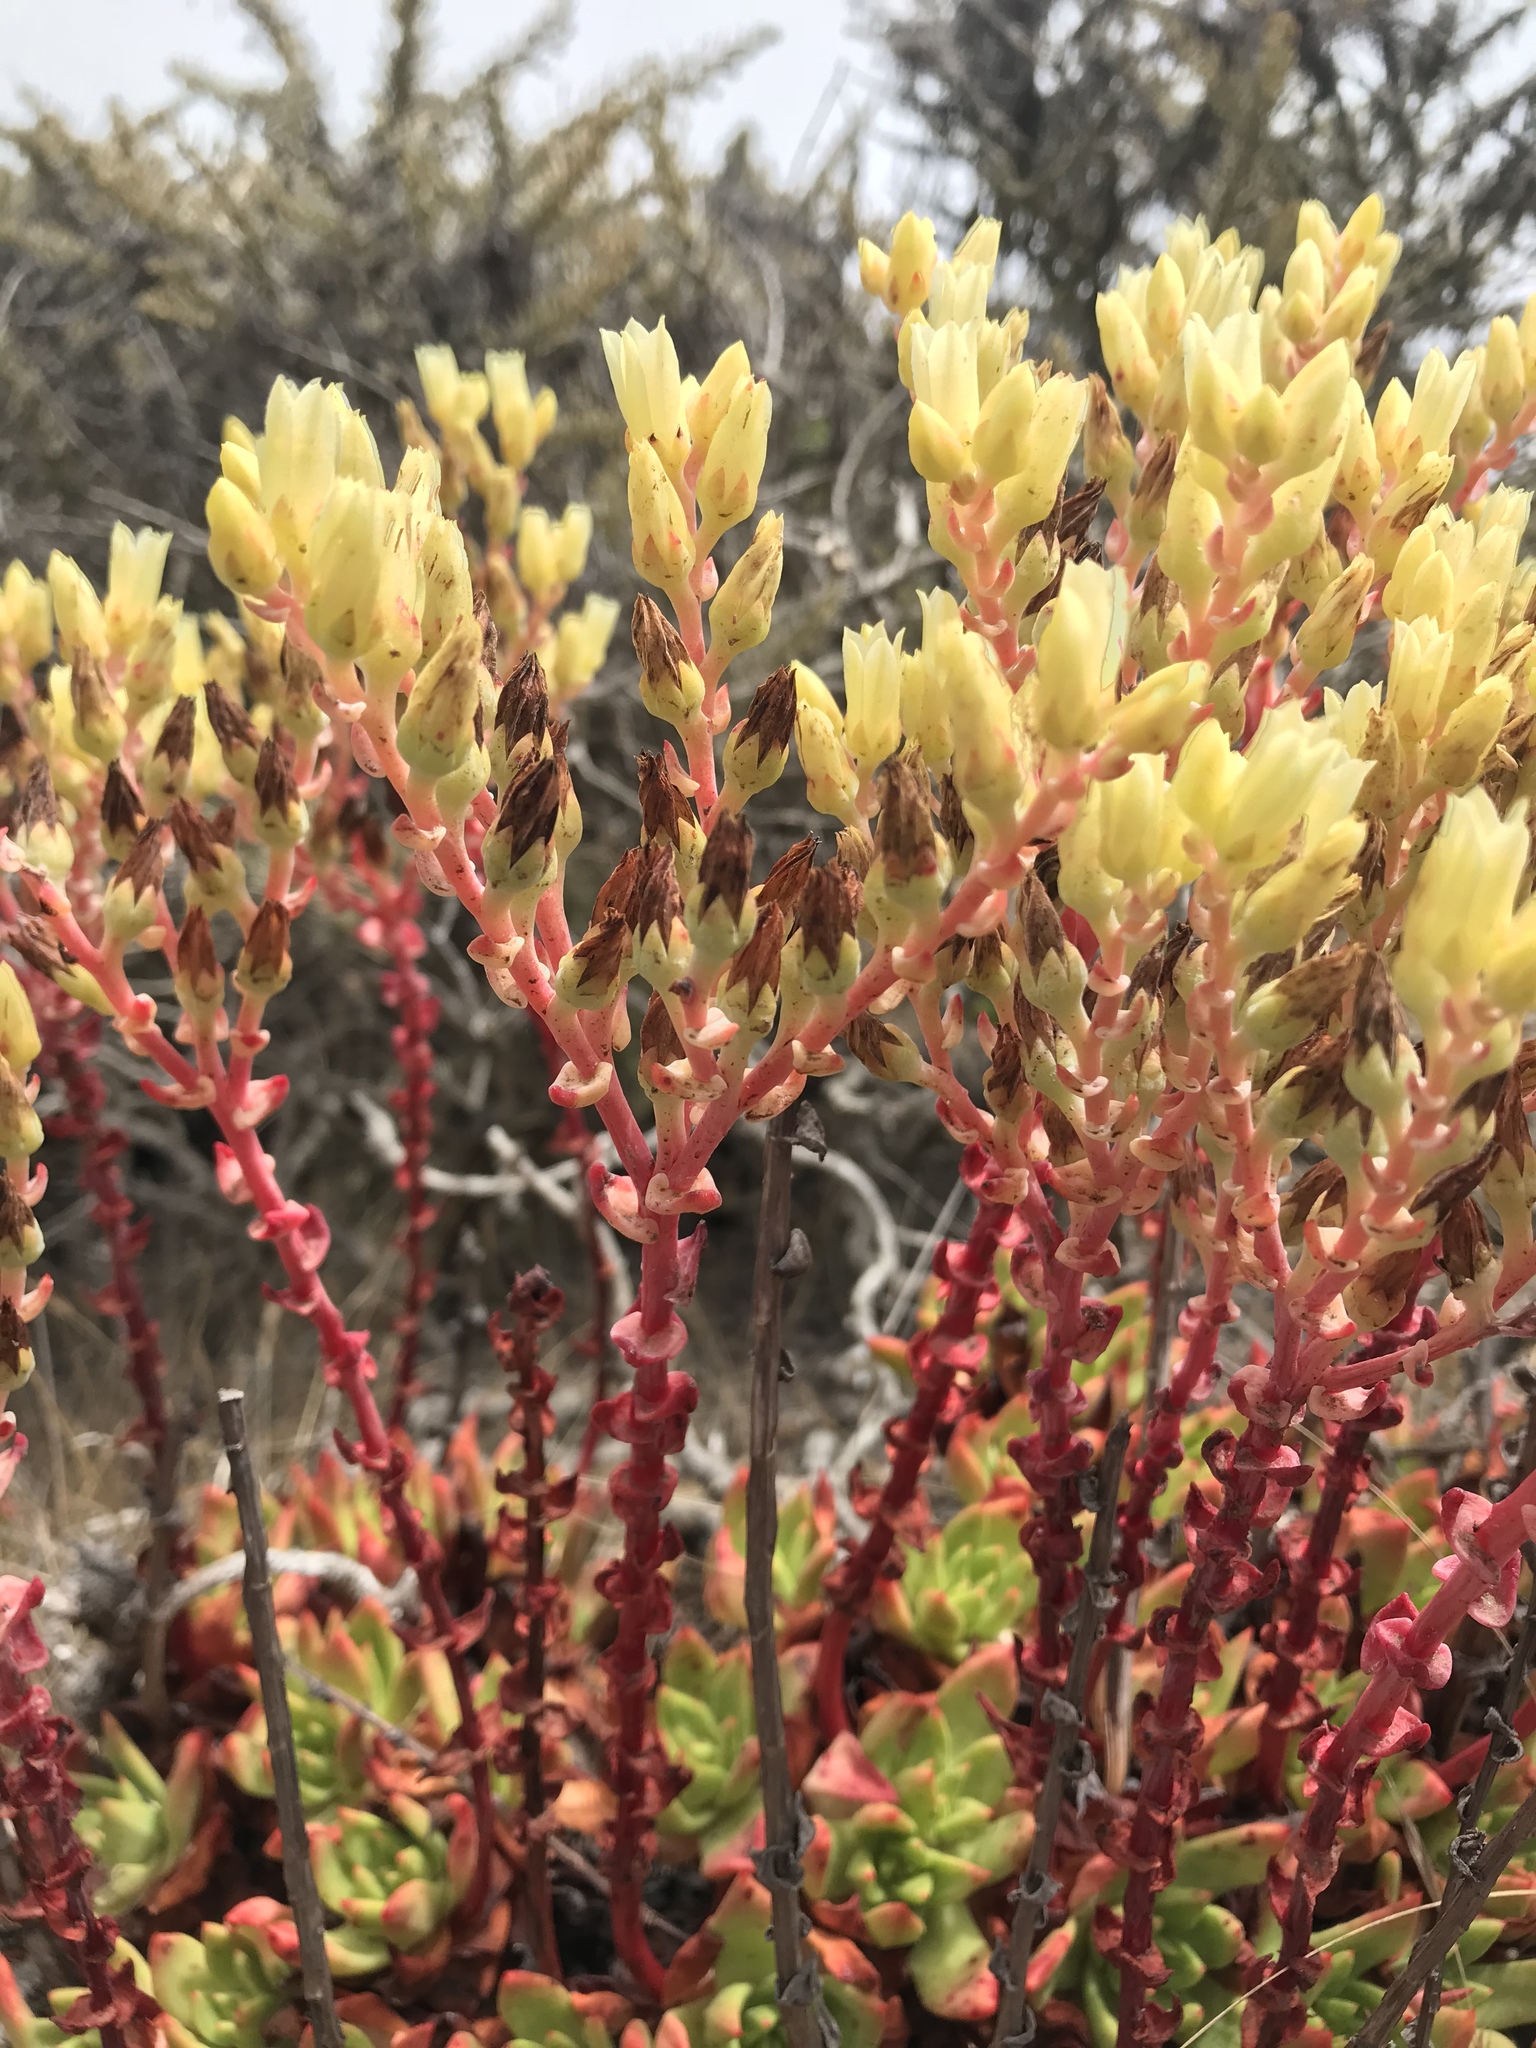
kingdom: Plantae
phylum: Tracheophyta
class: Magnoliopsida
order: Saxifragales
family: Crassulaceae
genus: Dudleya
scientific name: Dudleya farinosa
